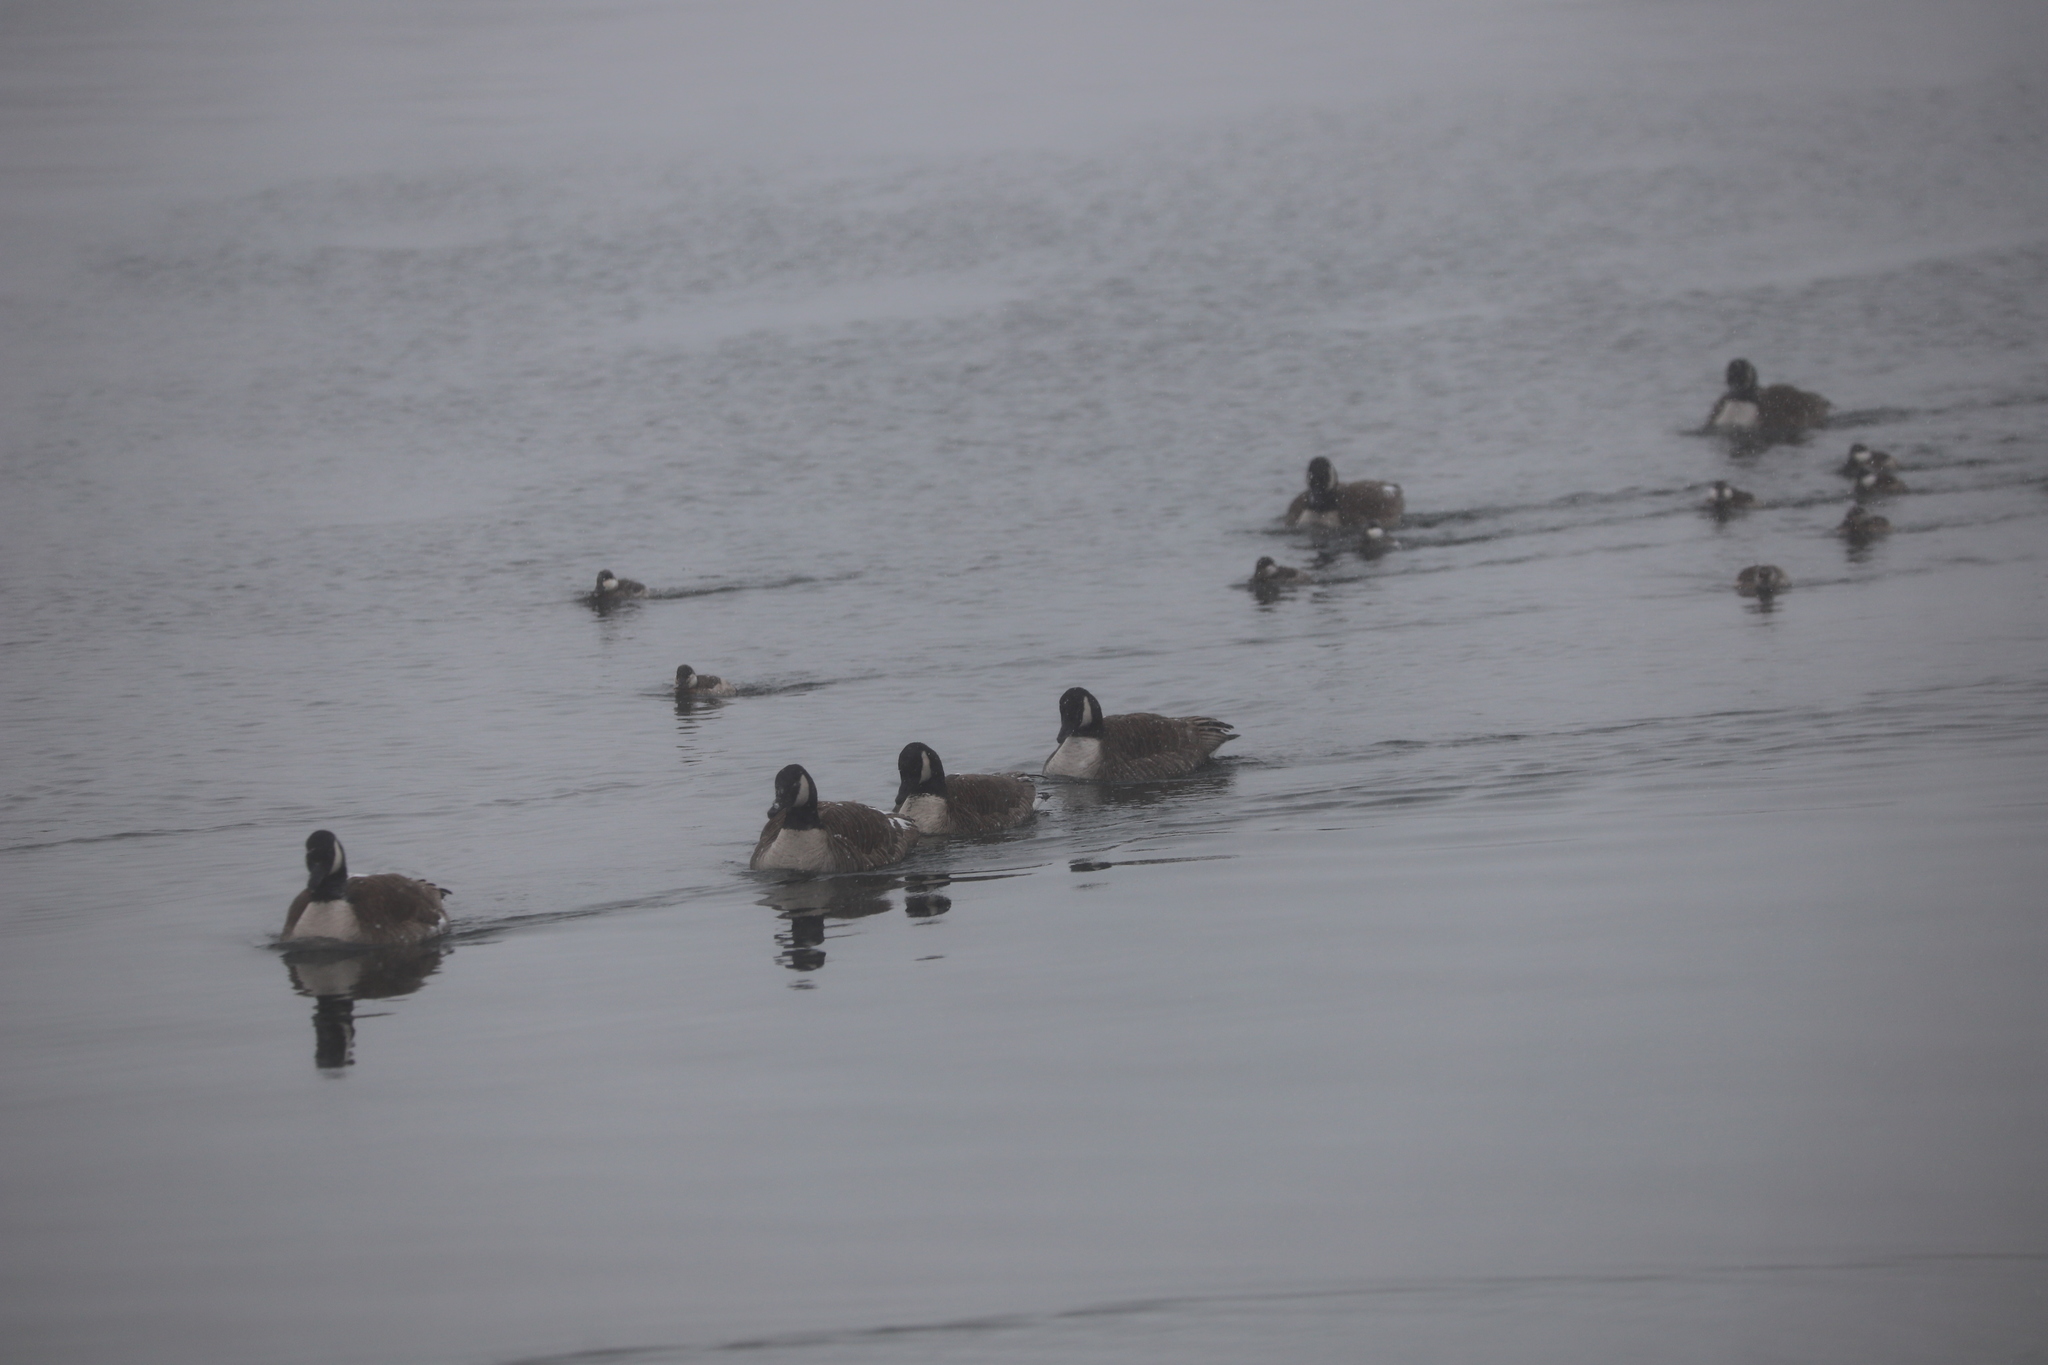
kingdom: Animalia
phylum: Chordata
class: Aves
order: Anseriformes
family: Anatidae
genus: Branta
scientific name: Branta canadensis
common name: Canada goose
